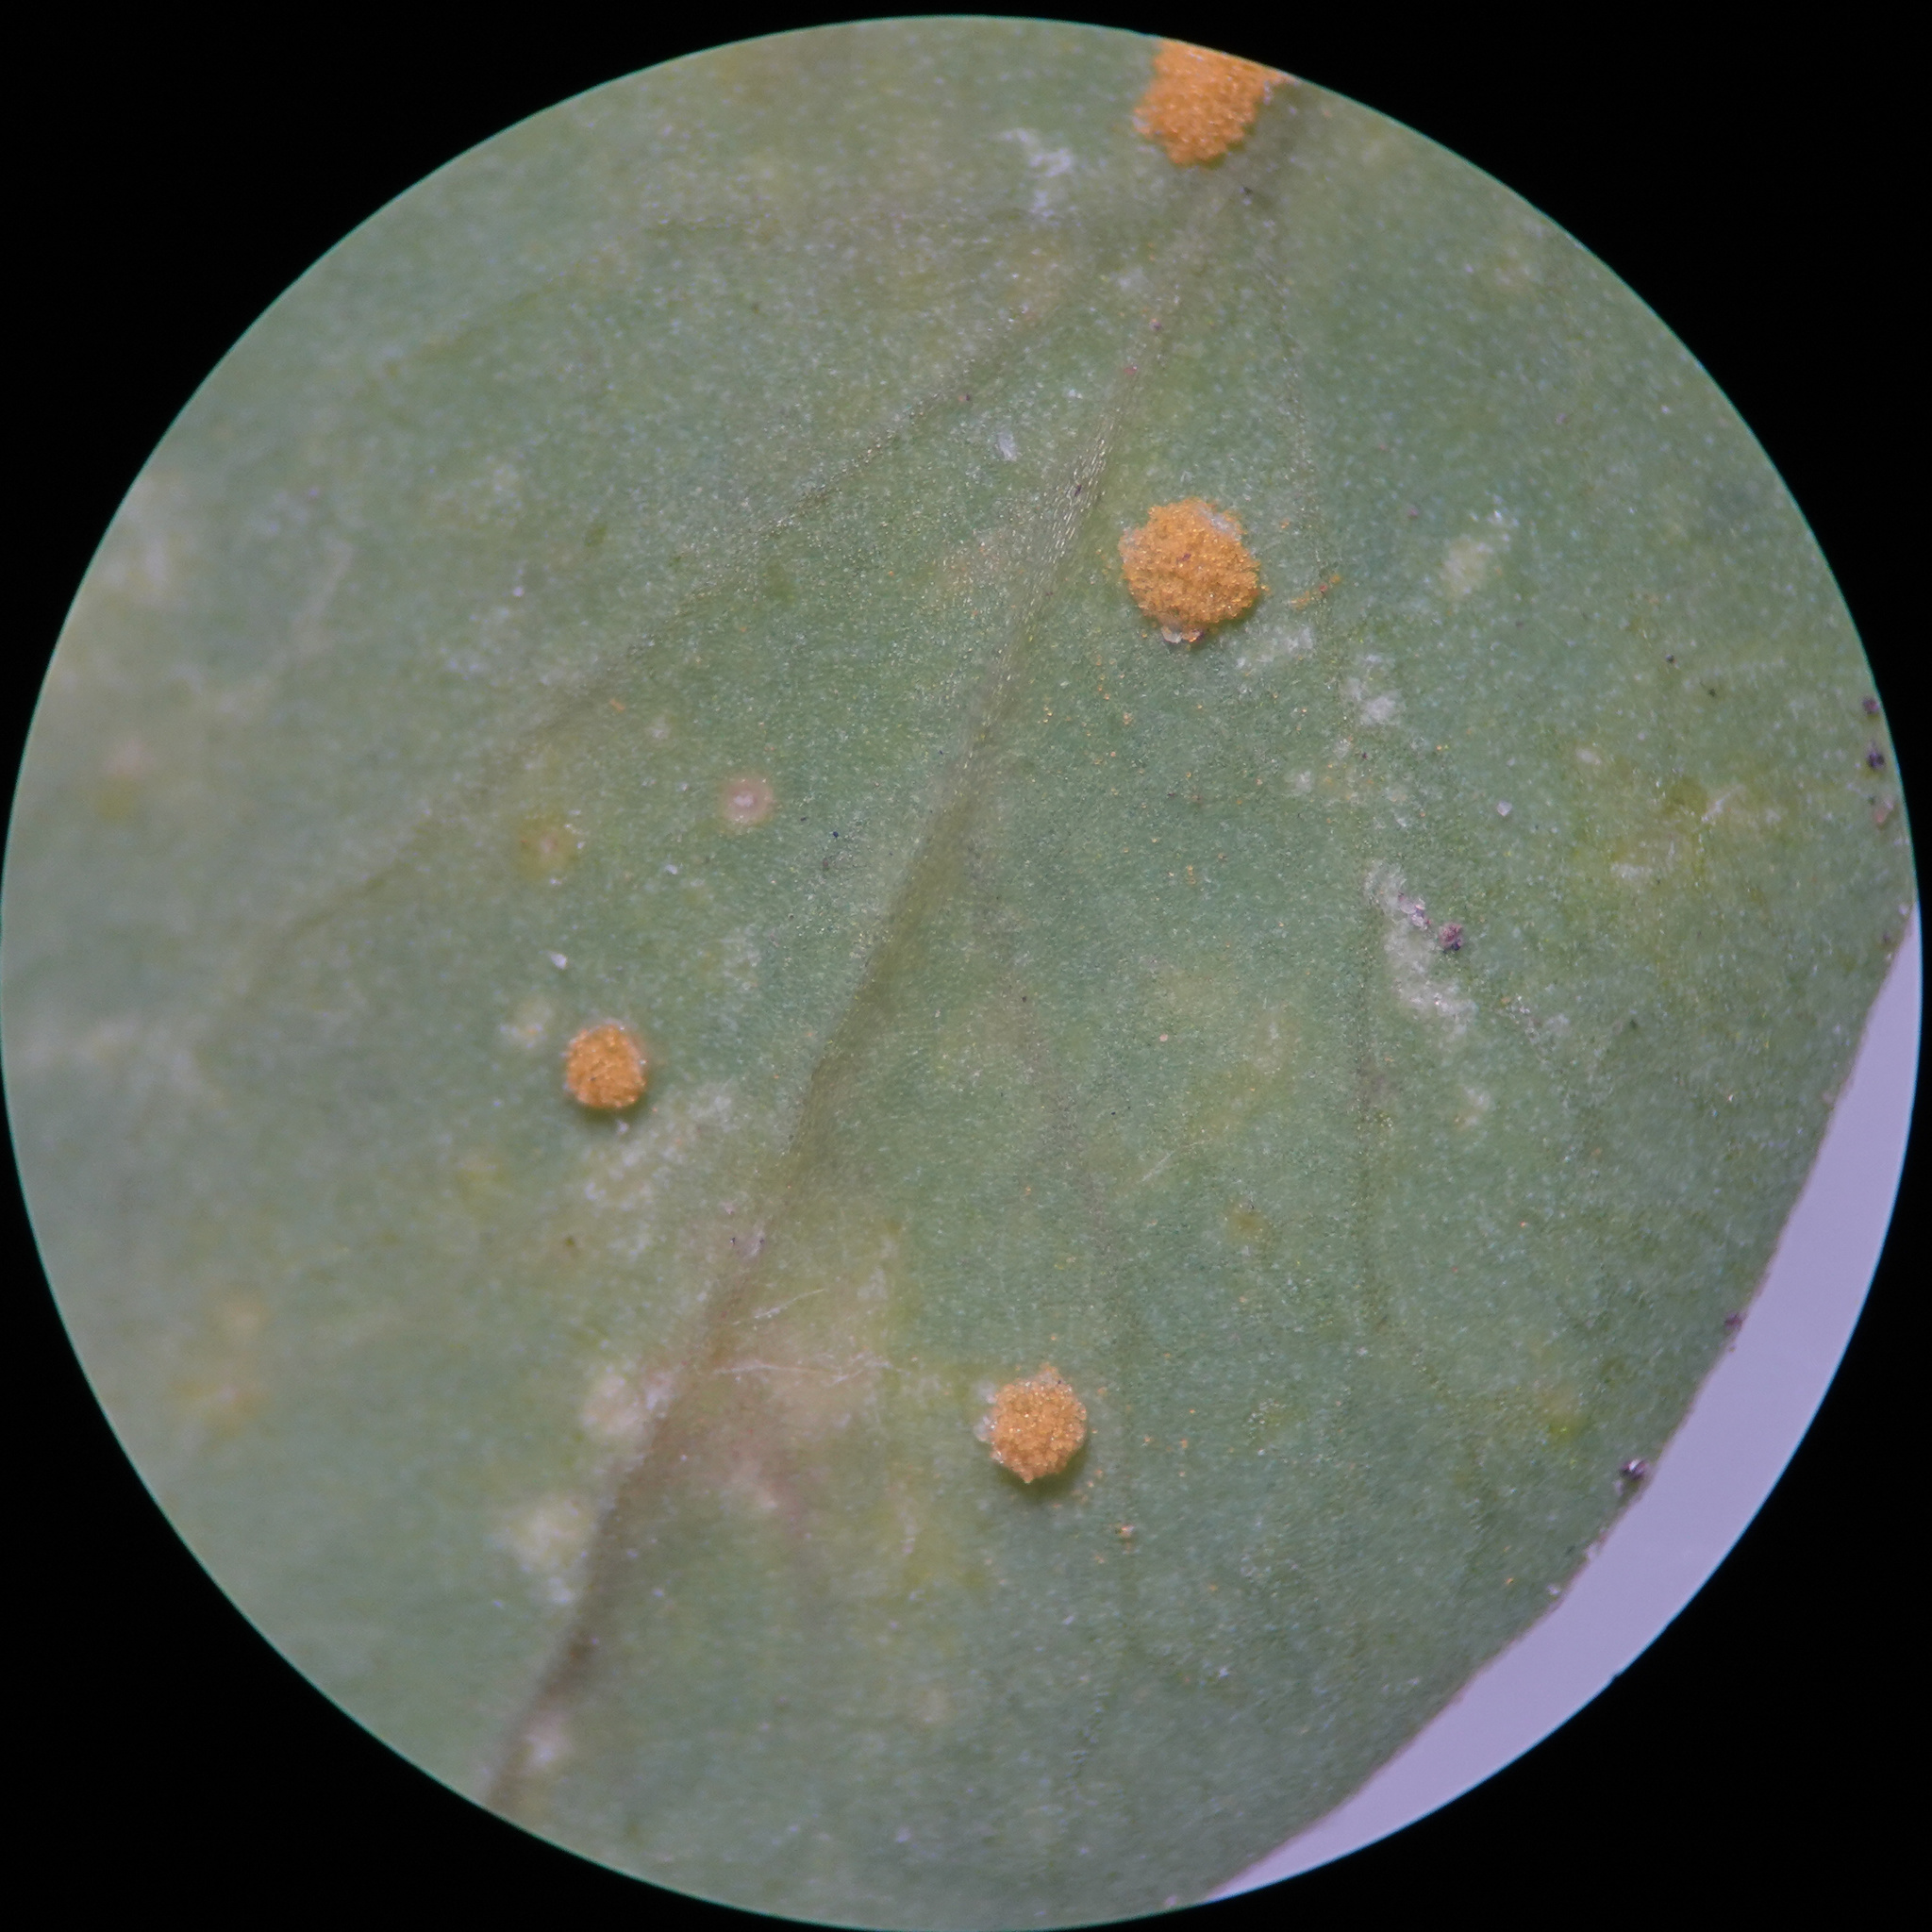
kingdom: Fungi
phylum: Basidiomycota
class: Pucciniomycetes
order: Pucciniales
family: Melampsoraceae
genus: Melampsora
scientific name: Melampsora euphorbiae
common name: Spurge rust
